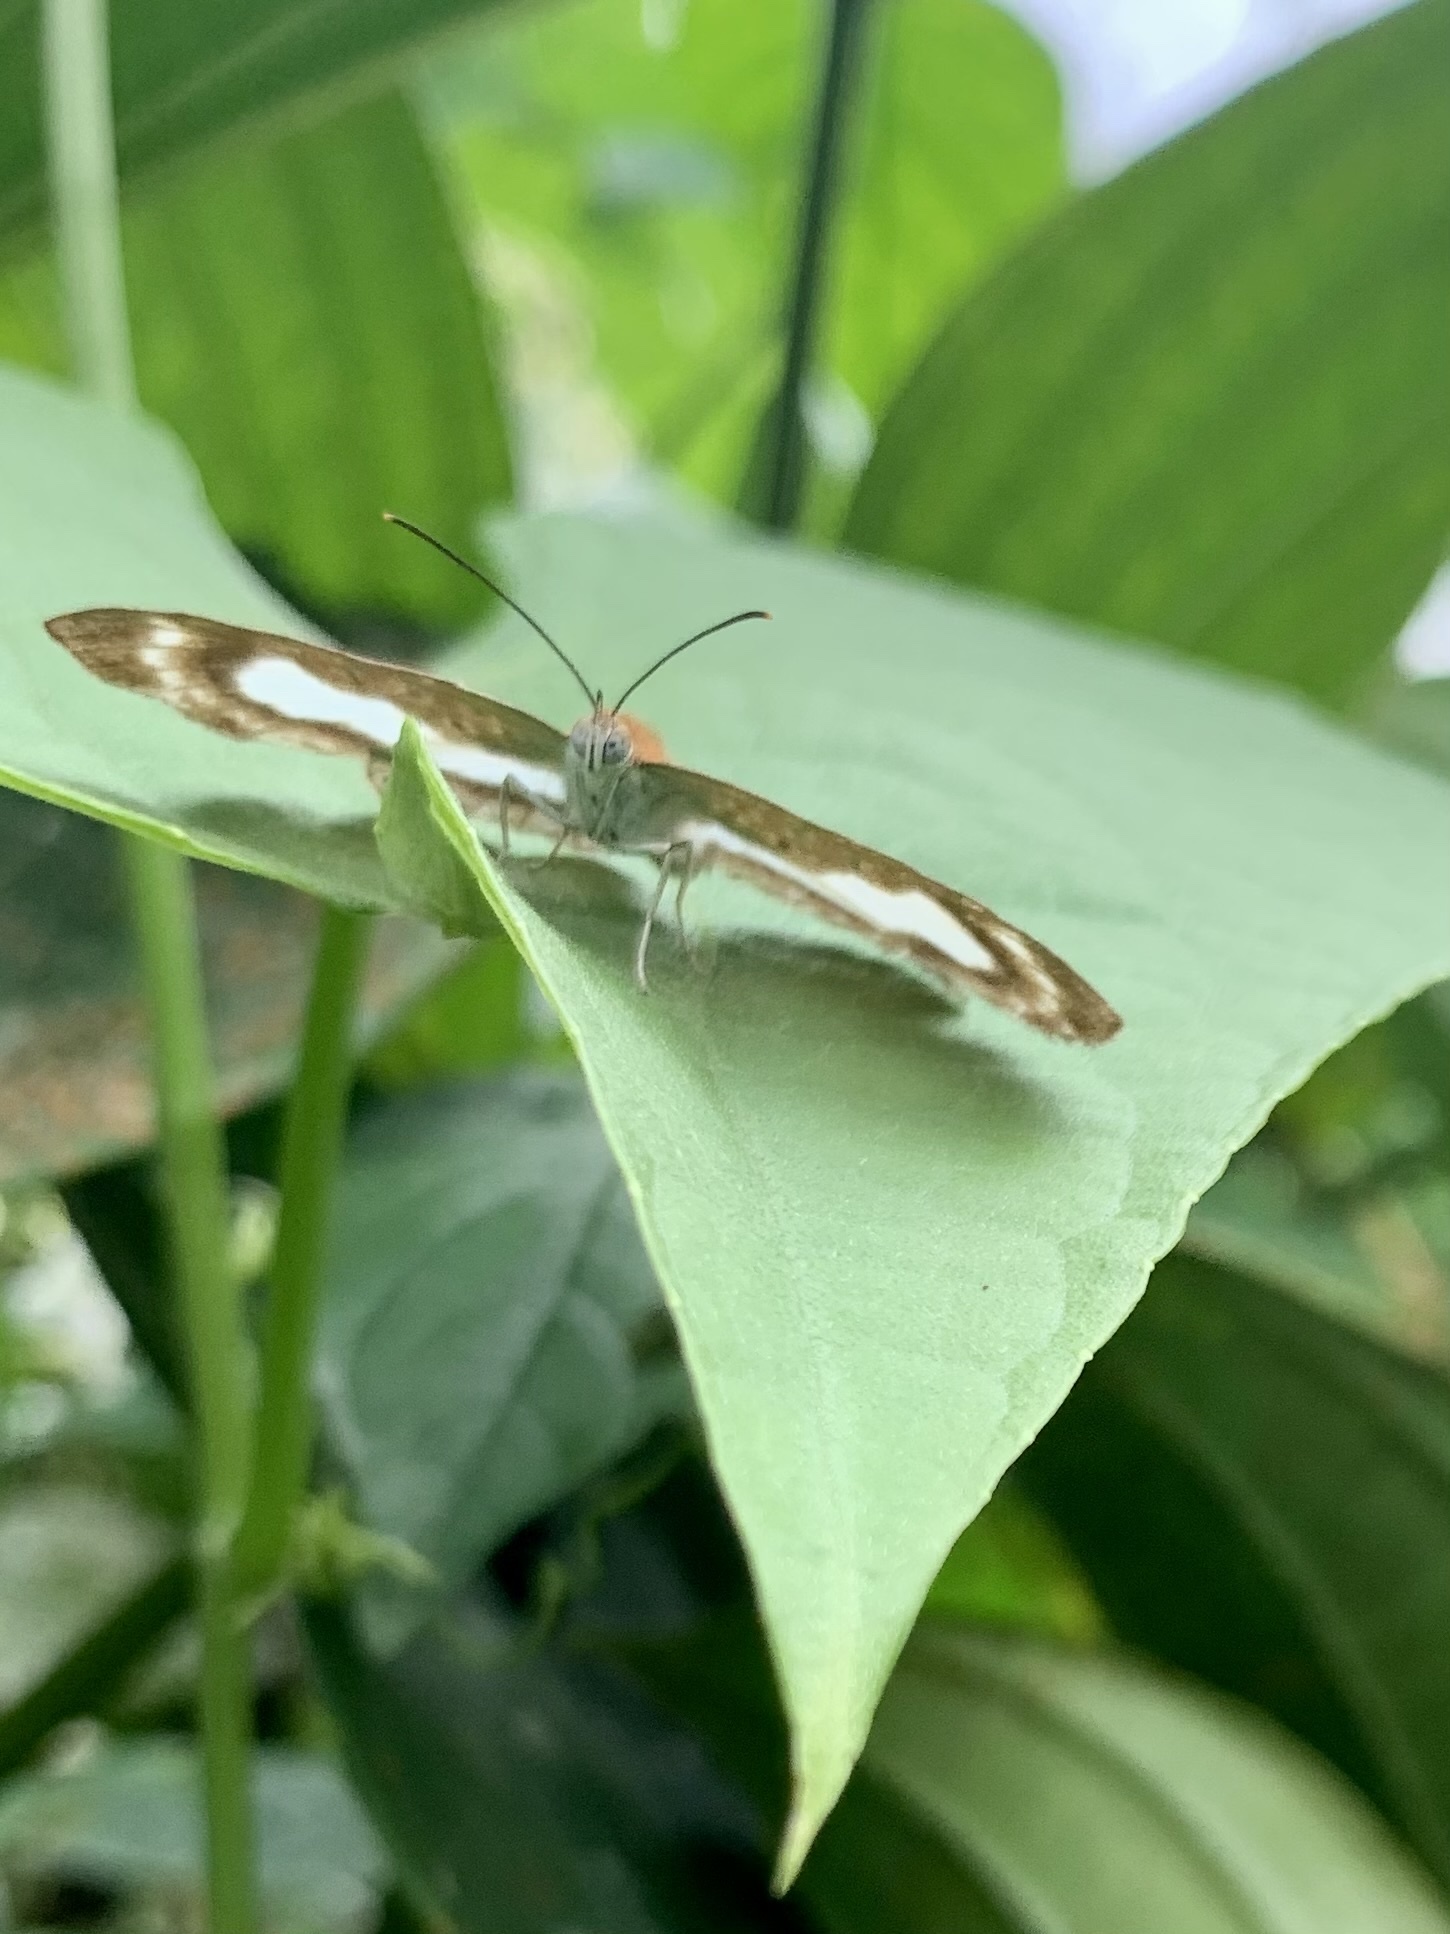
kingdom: Animalia
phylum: Arthropoda
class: Insecta
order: Lepidoptera
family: Riodinidae
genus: Synargis
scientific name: Synargis mycone
